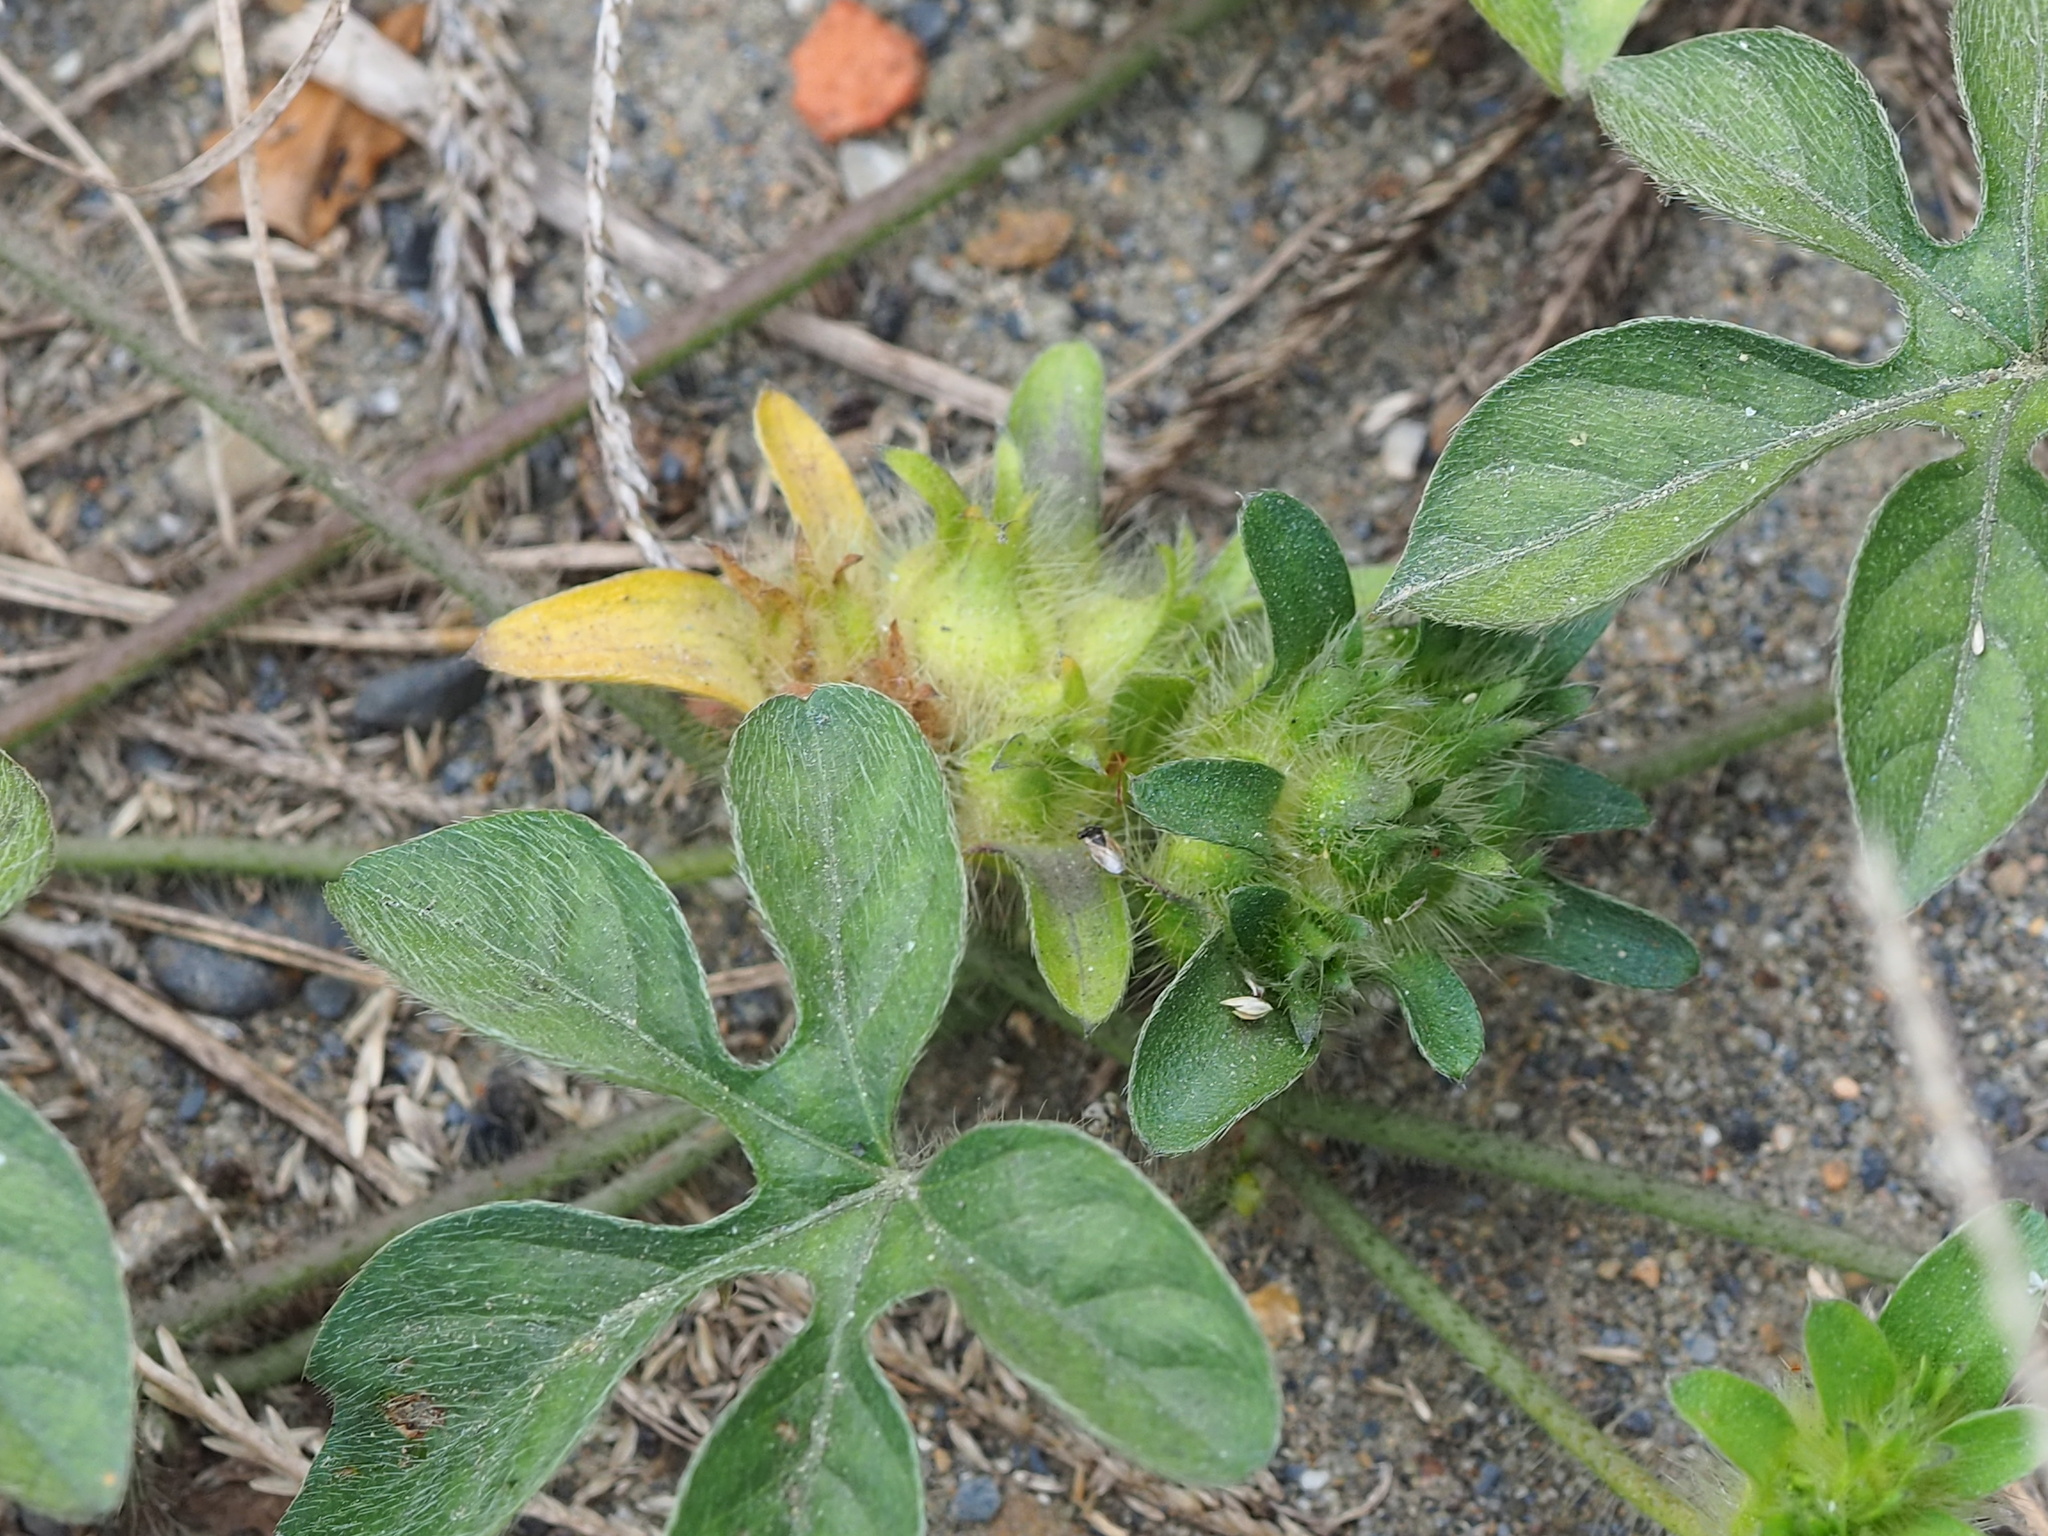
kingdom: Plantae
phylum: Tracheophyta
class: Magnoliopsida
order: Solanales
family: Convolvulaceae
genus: Ipomoea
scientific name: Ipomoea pes-tigridis
